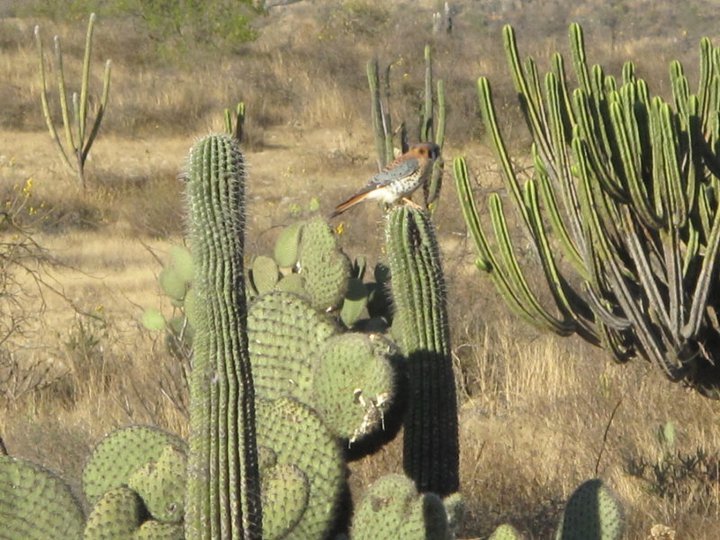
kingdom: Animalia
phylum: Chordata
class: Aves
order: Falconiformes
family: Falconidae
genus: Falco
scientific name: Falco sparverius
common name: American kestrel
